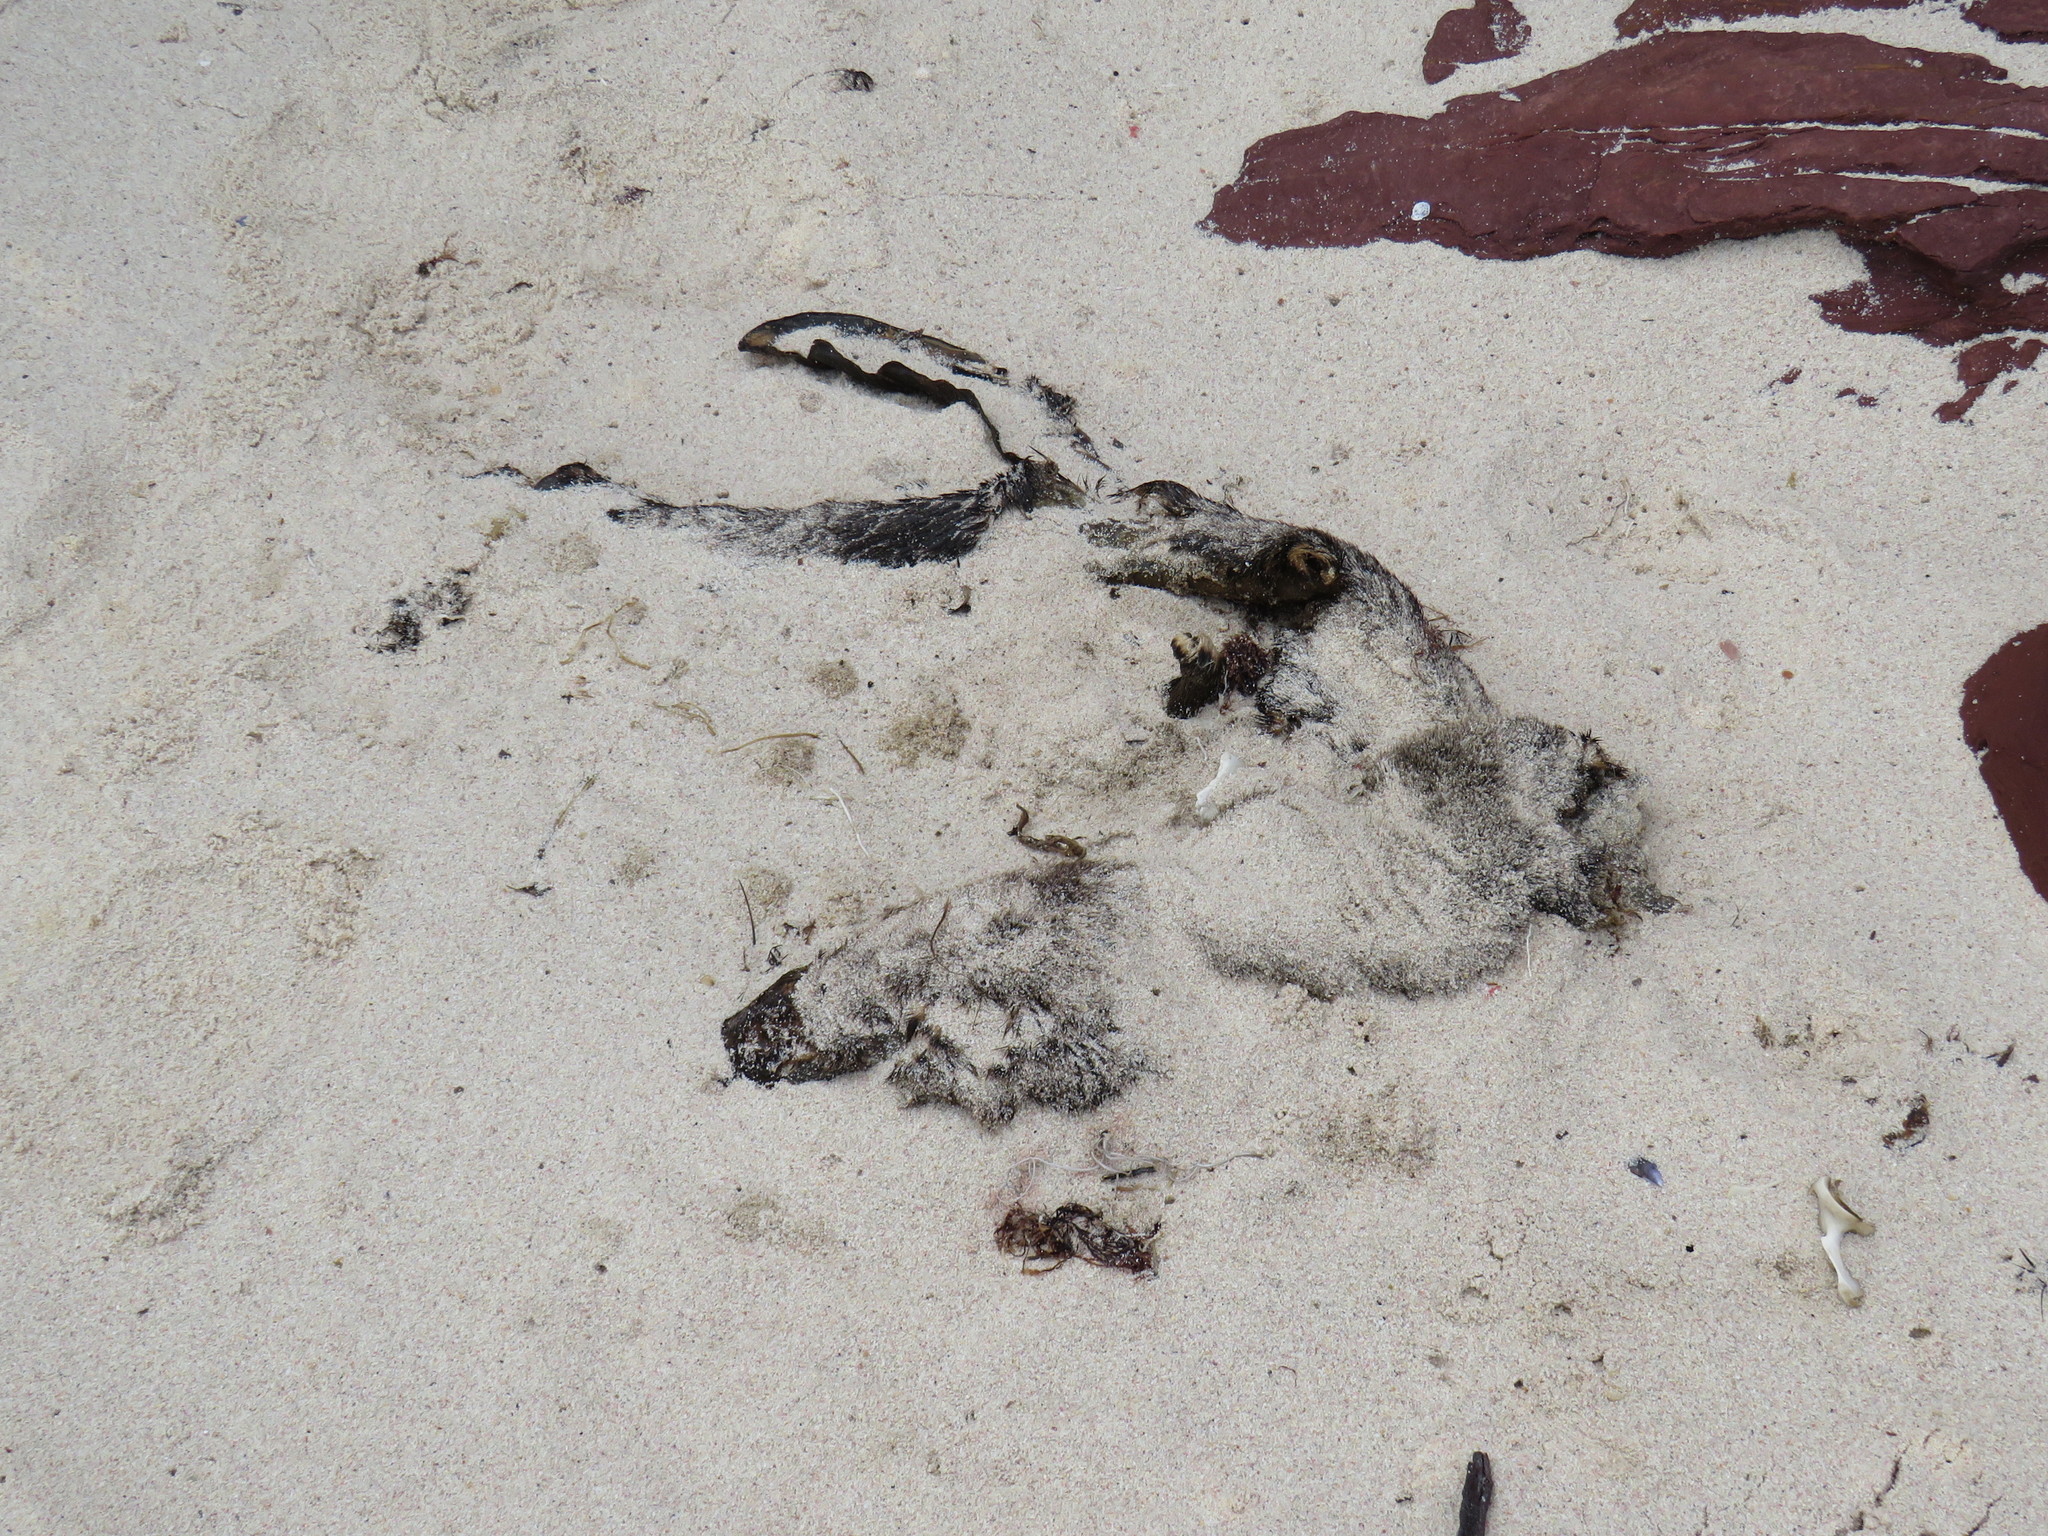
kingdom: Animalia
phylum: Chordata
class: Mammalia
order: Carnivora
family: Otariidae
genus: Arctocephalus
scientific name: Arctocephalus pusillus
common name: Brown fur seal
